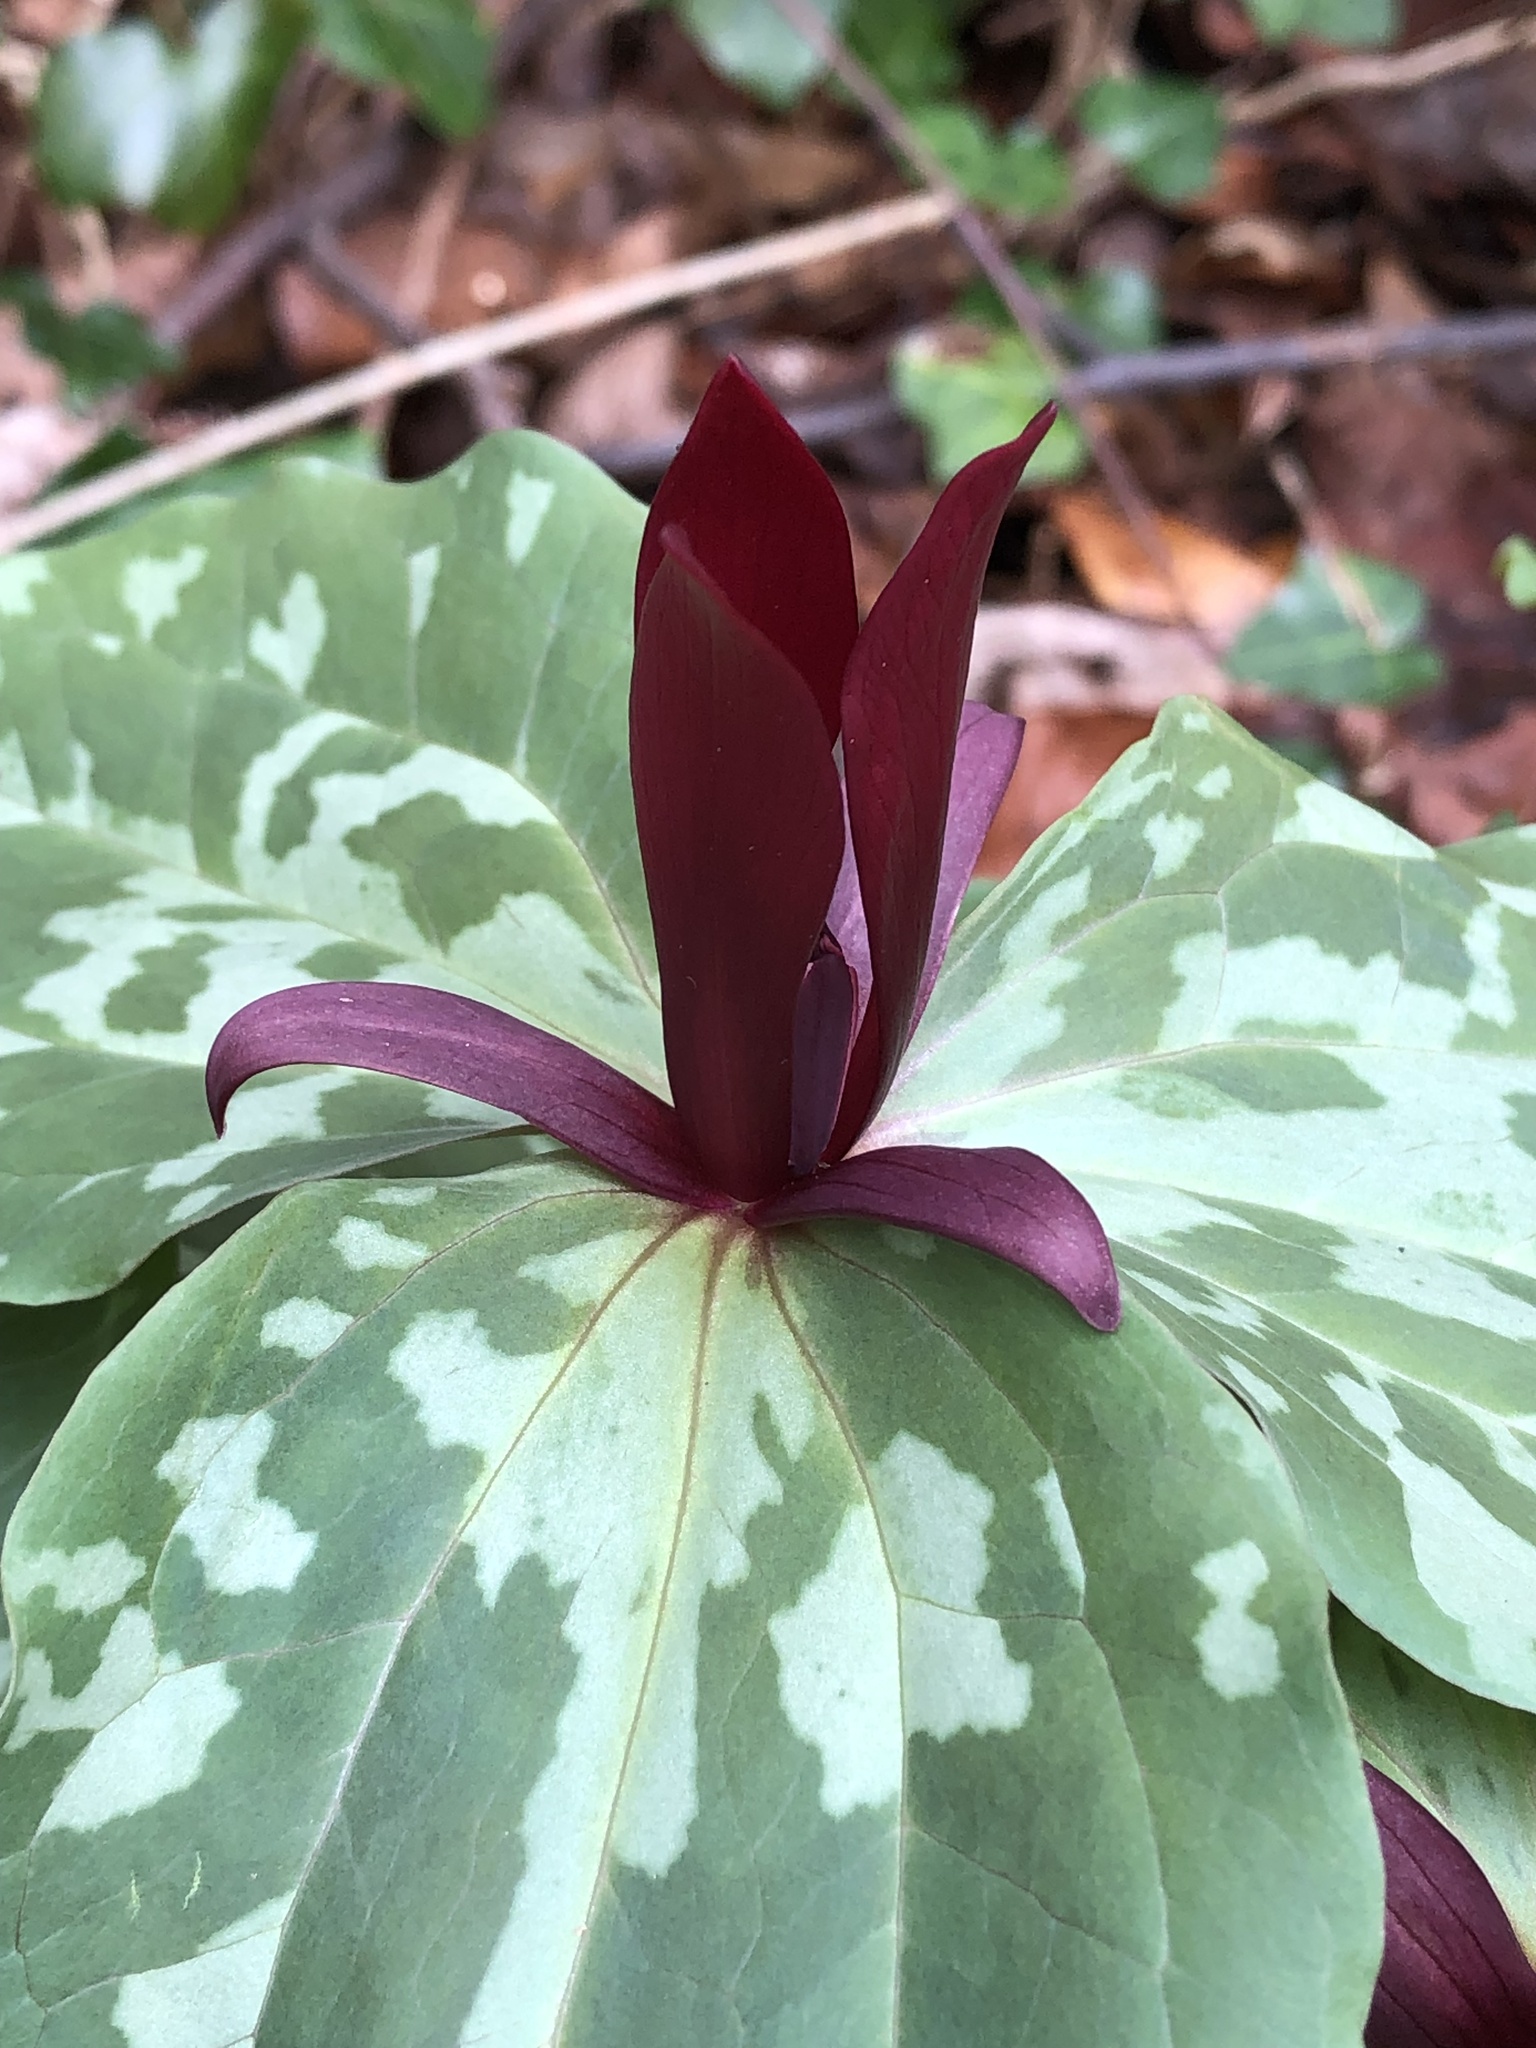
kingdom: Plantae
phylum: Tracheophyta
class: Liliopsida
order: Liliales
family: Melanthiaceae
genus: Trillium
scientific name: Trillium maculatum
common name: Mottled trillium
